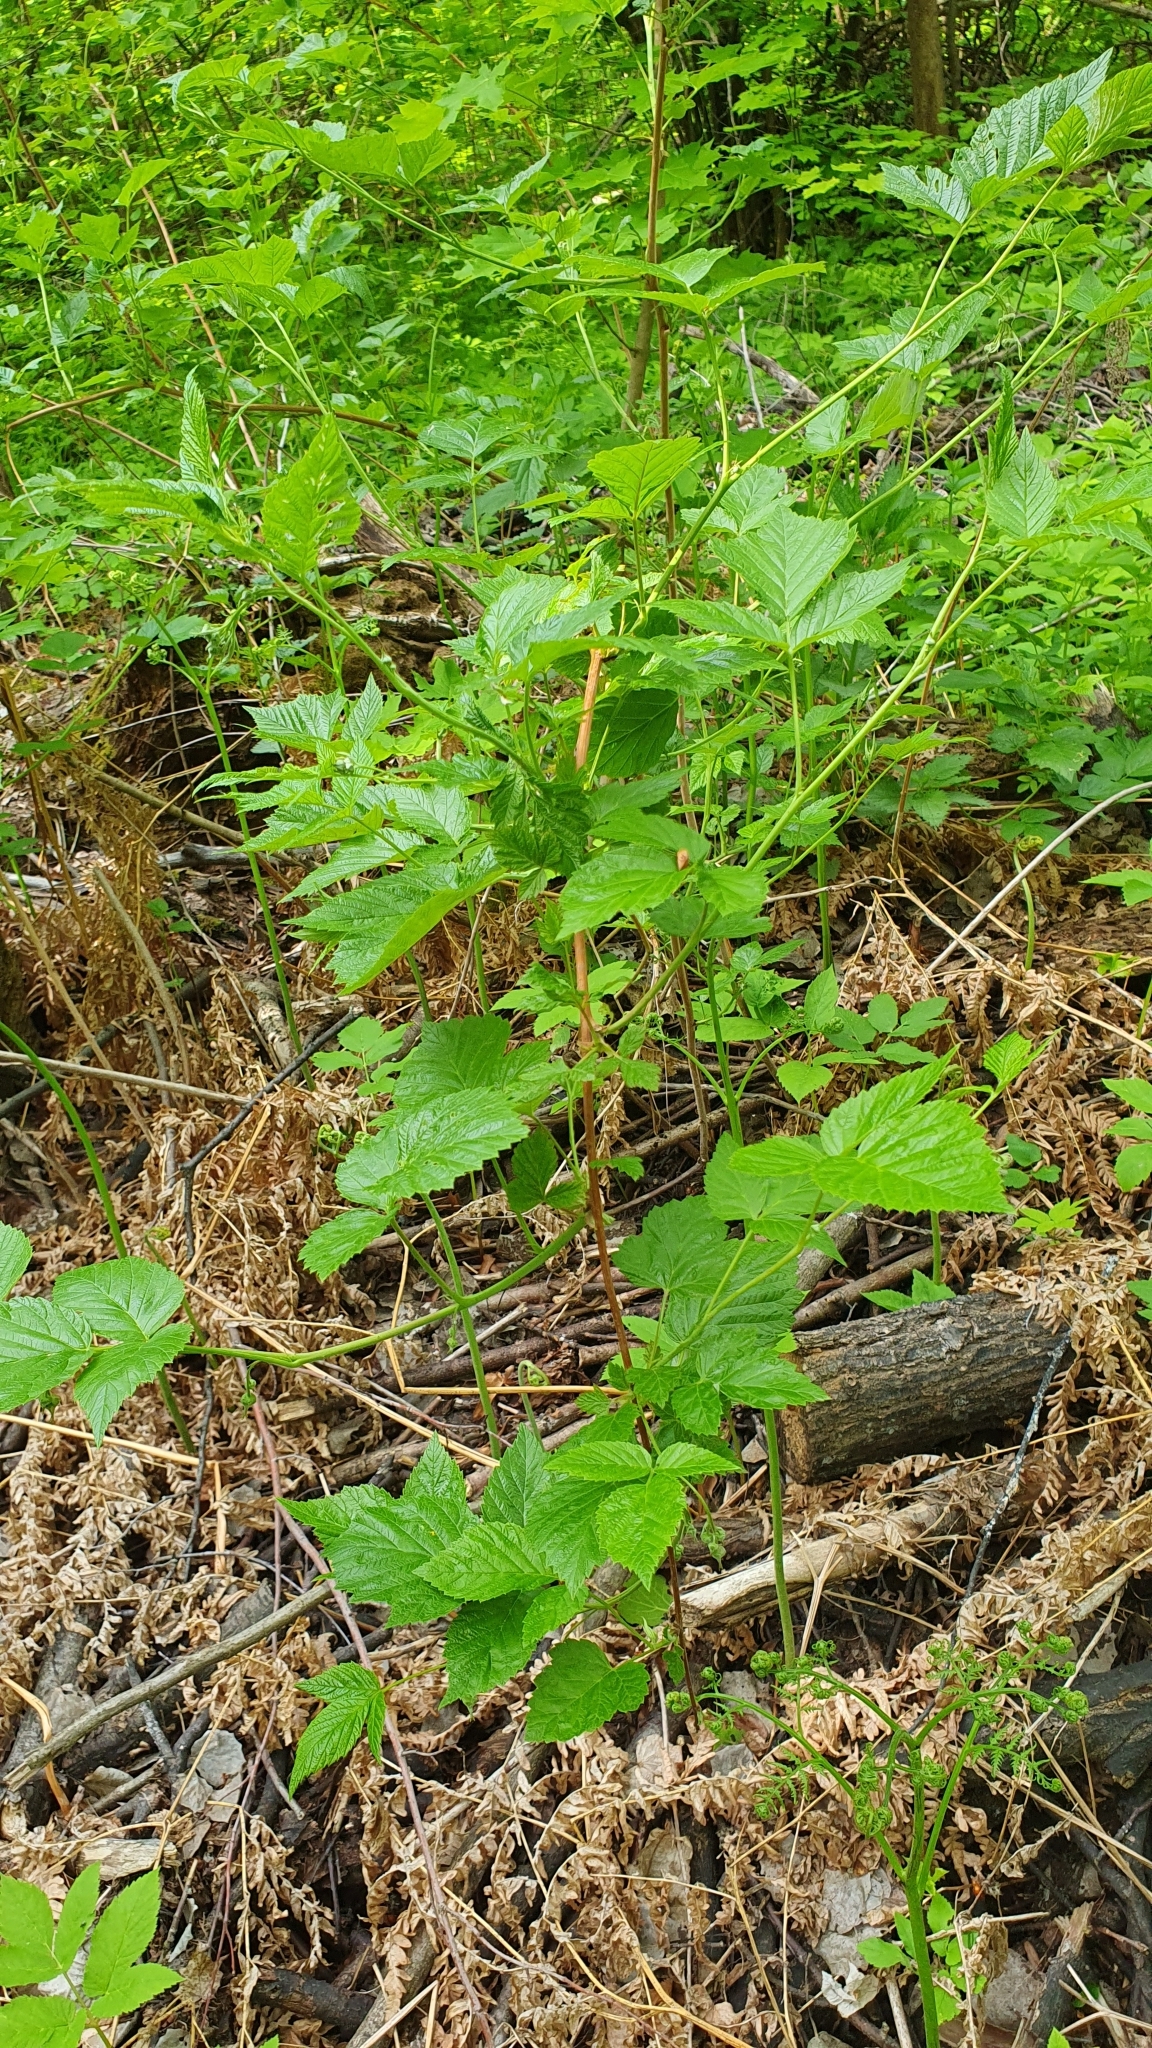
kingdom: Plantae
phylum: Tracheophyta
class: Magnoliopsida
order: Rosales
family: Rosaceae
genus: Rubus
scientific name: Rubus idaeus
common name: Raspberry
